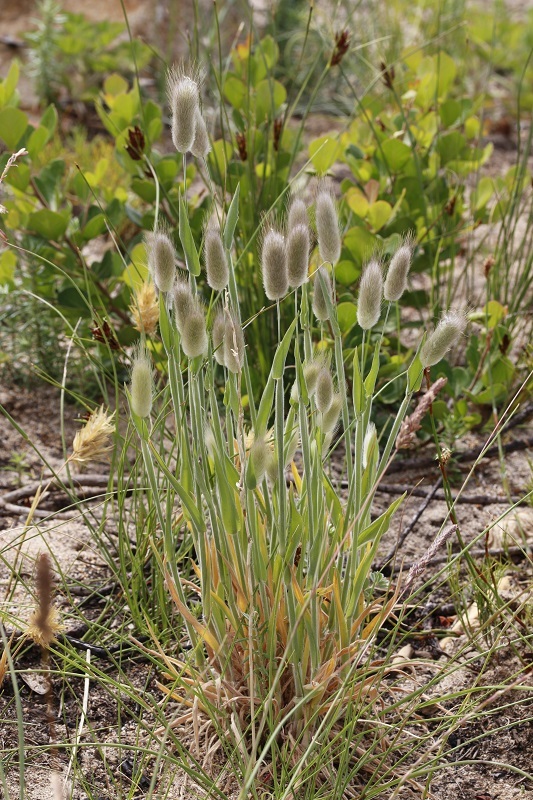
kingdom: Plantae
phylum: Tracheophyta
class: Liliopsida
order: Poales
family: Poaceae
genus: Lagurus
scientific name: Lagurus ovatus
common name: Hare's-tail
